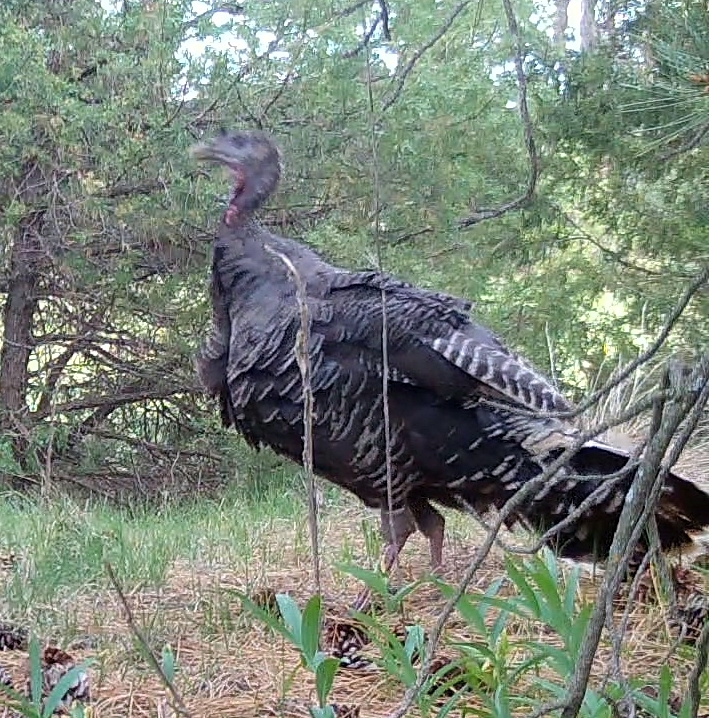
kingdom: Animalia
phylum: Chordata
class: Aves
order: Galliformes
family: Phasianidae
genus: Meleagris
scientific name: Meleagris gallopavo
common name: Wild turkey
